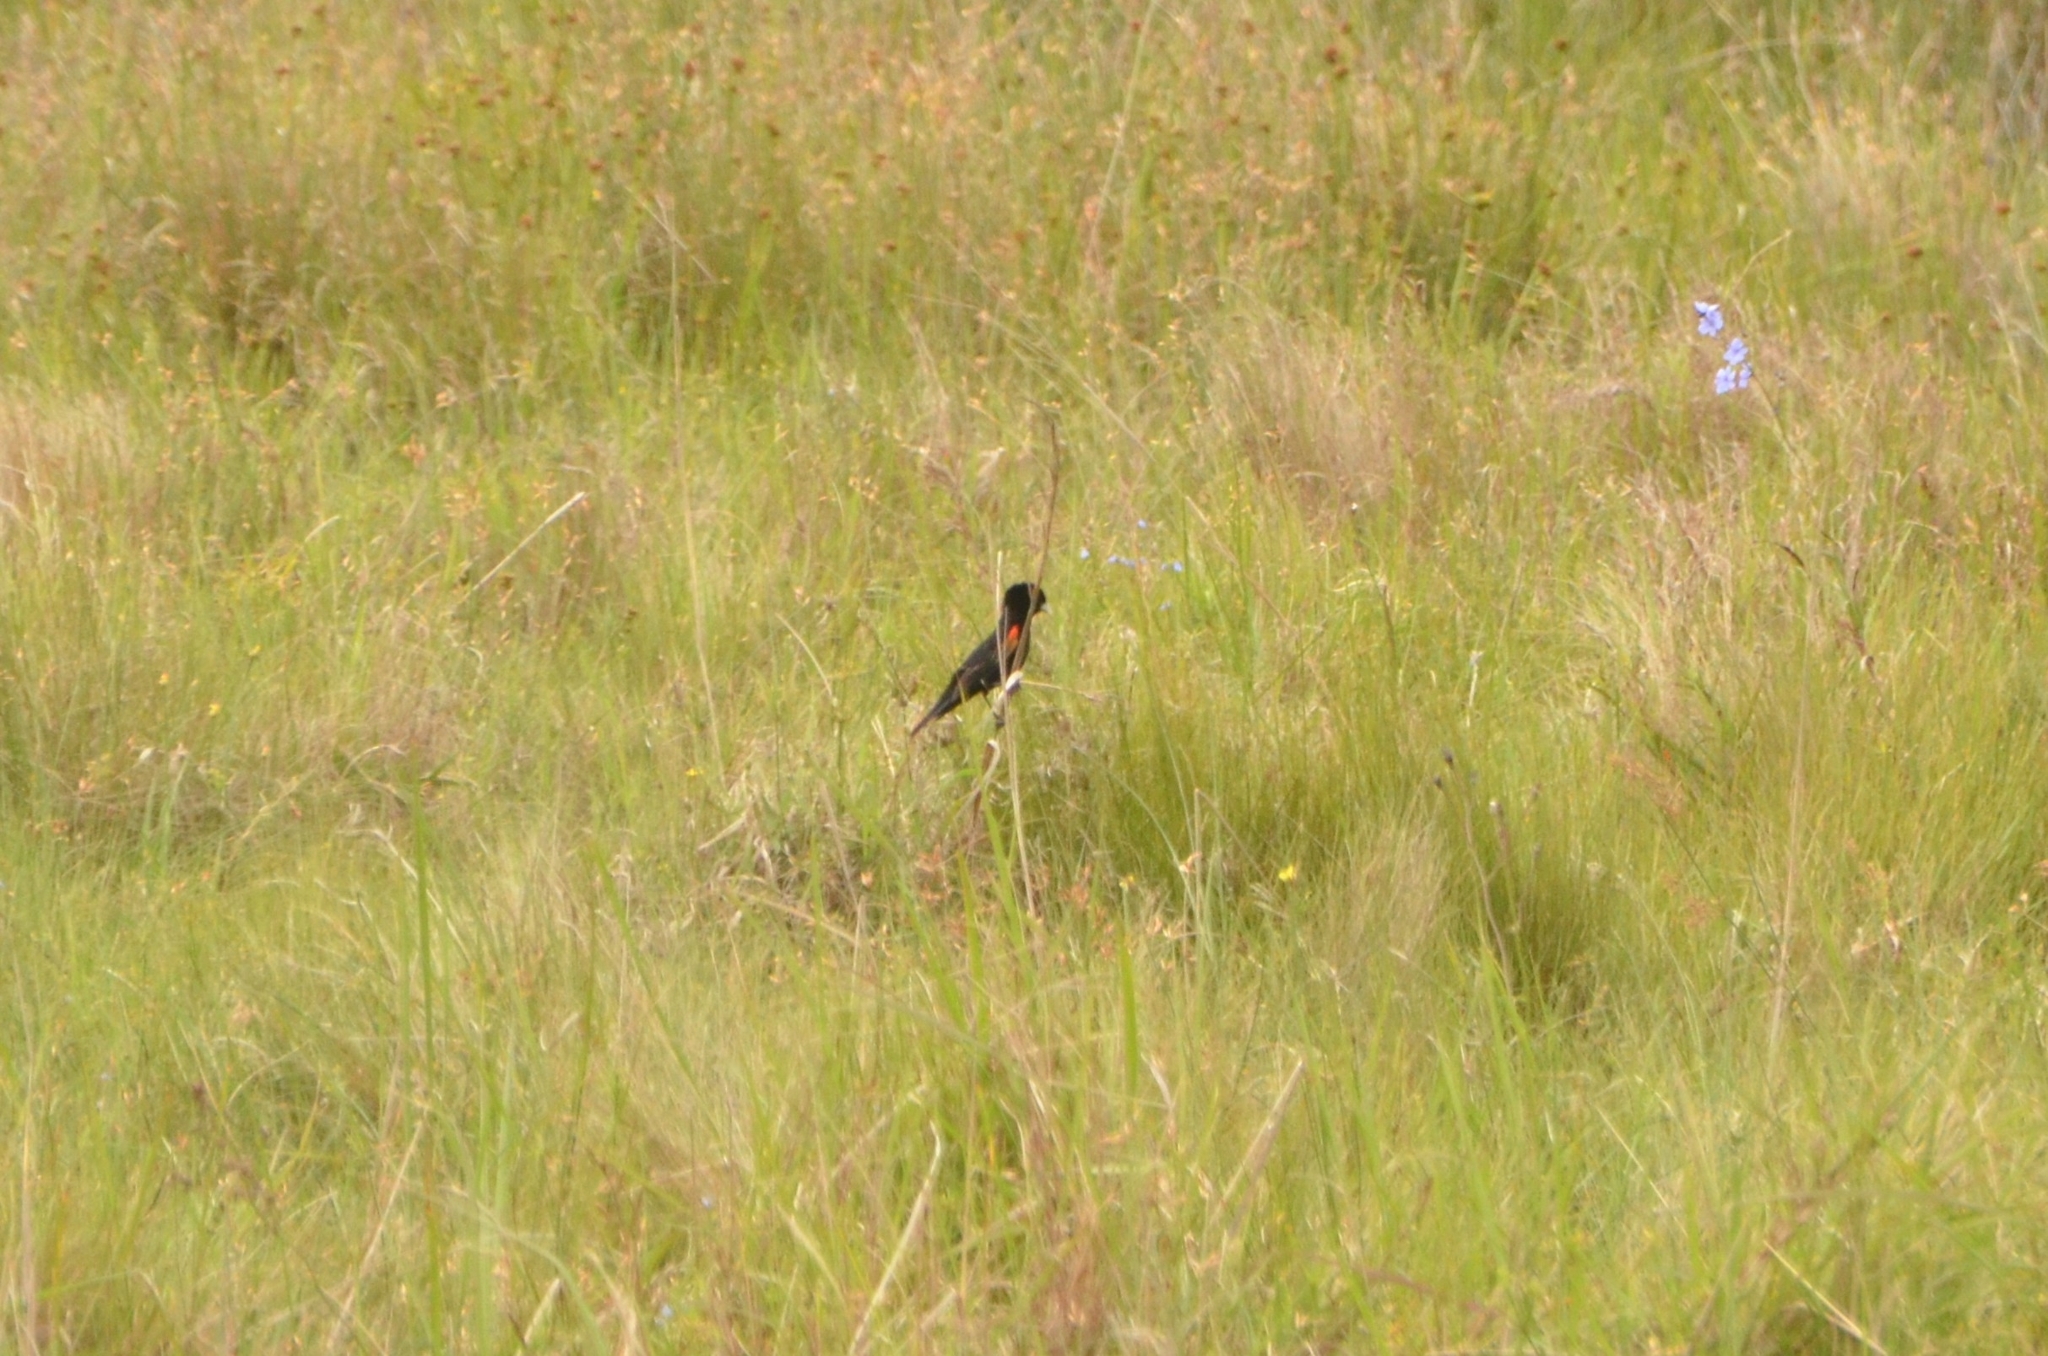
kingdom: Animalia
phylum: Chordata
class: Aves
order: Passeriformes
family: Ploceidae
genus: Euplectes
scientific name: Euplectes axillaris
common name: Fan-tailed widowbird
